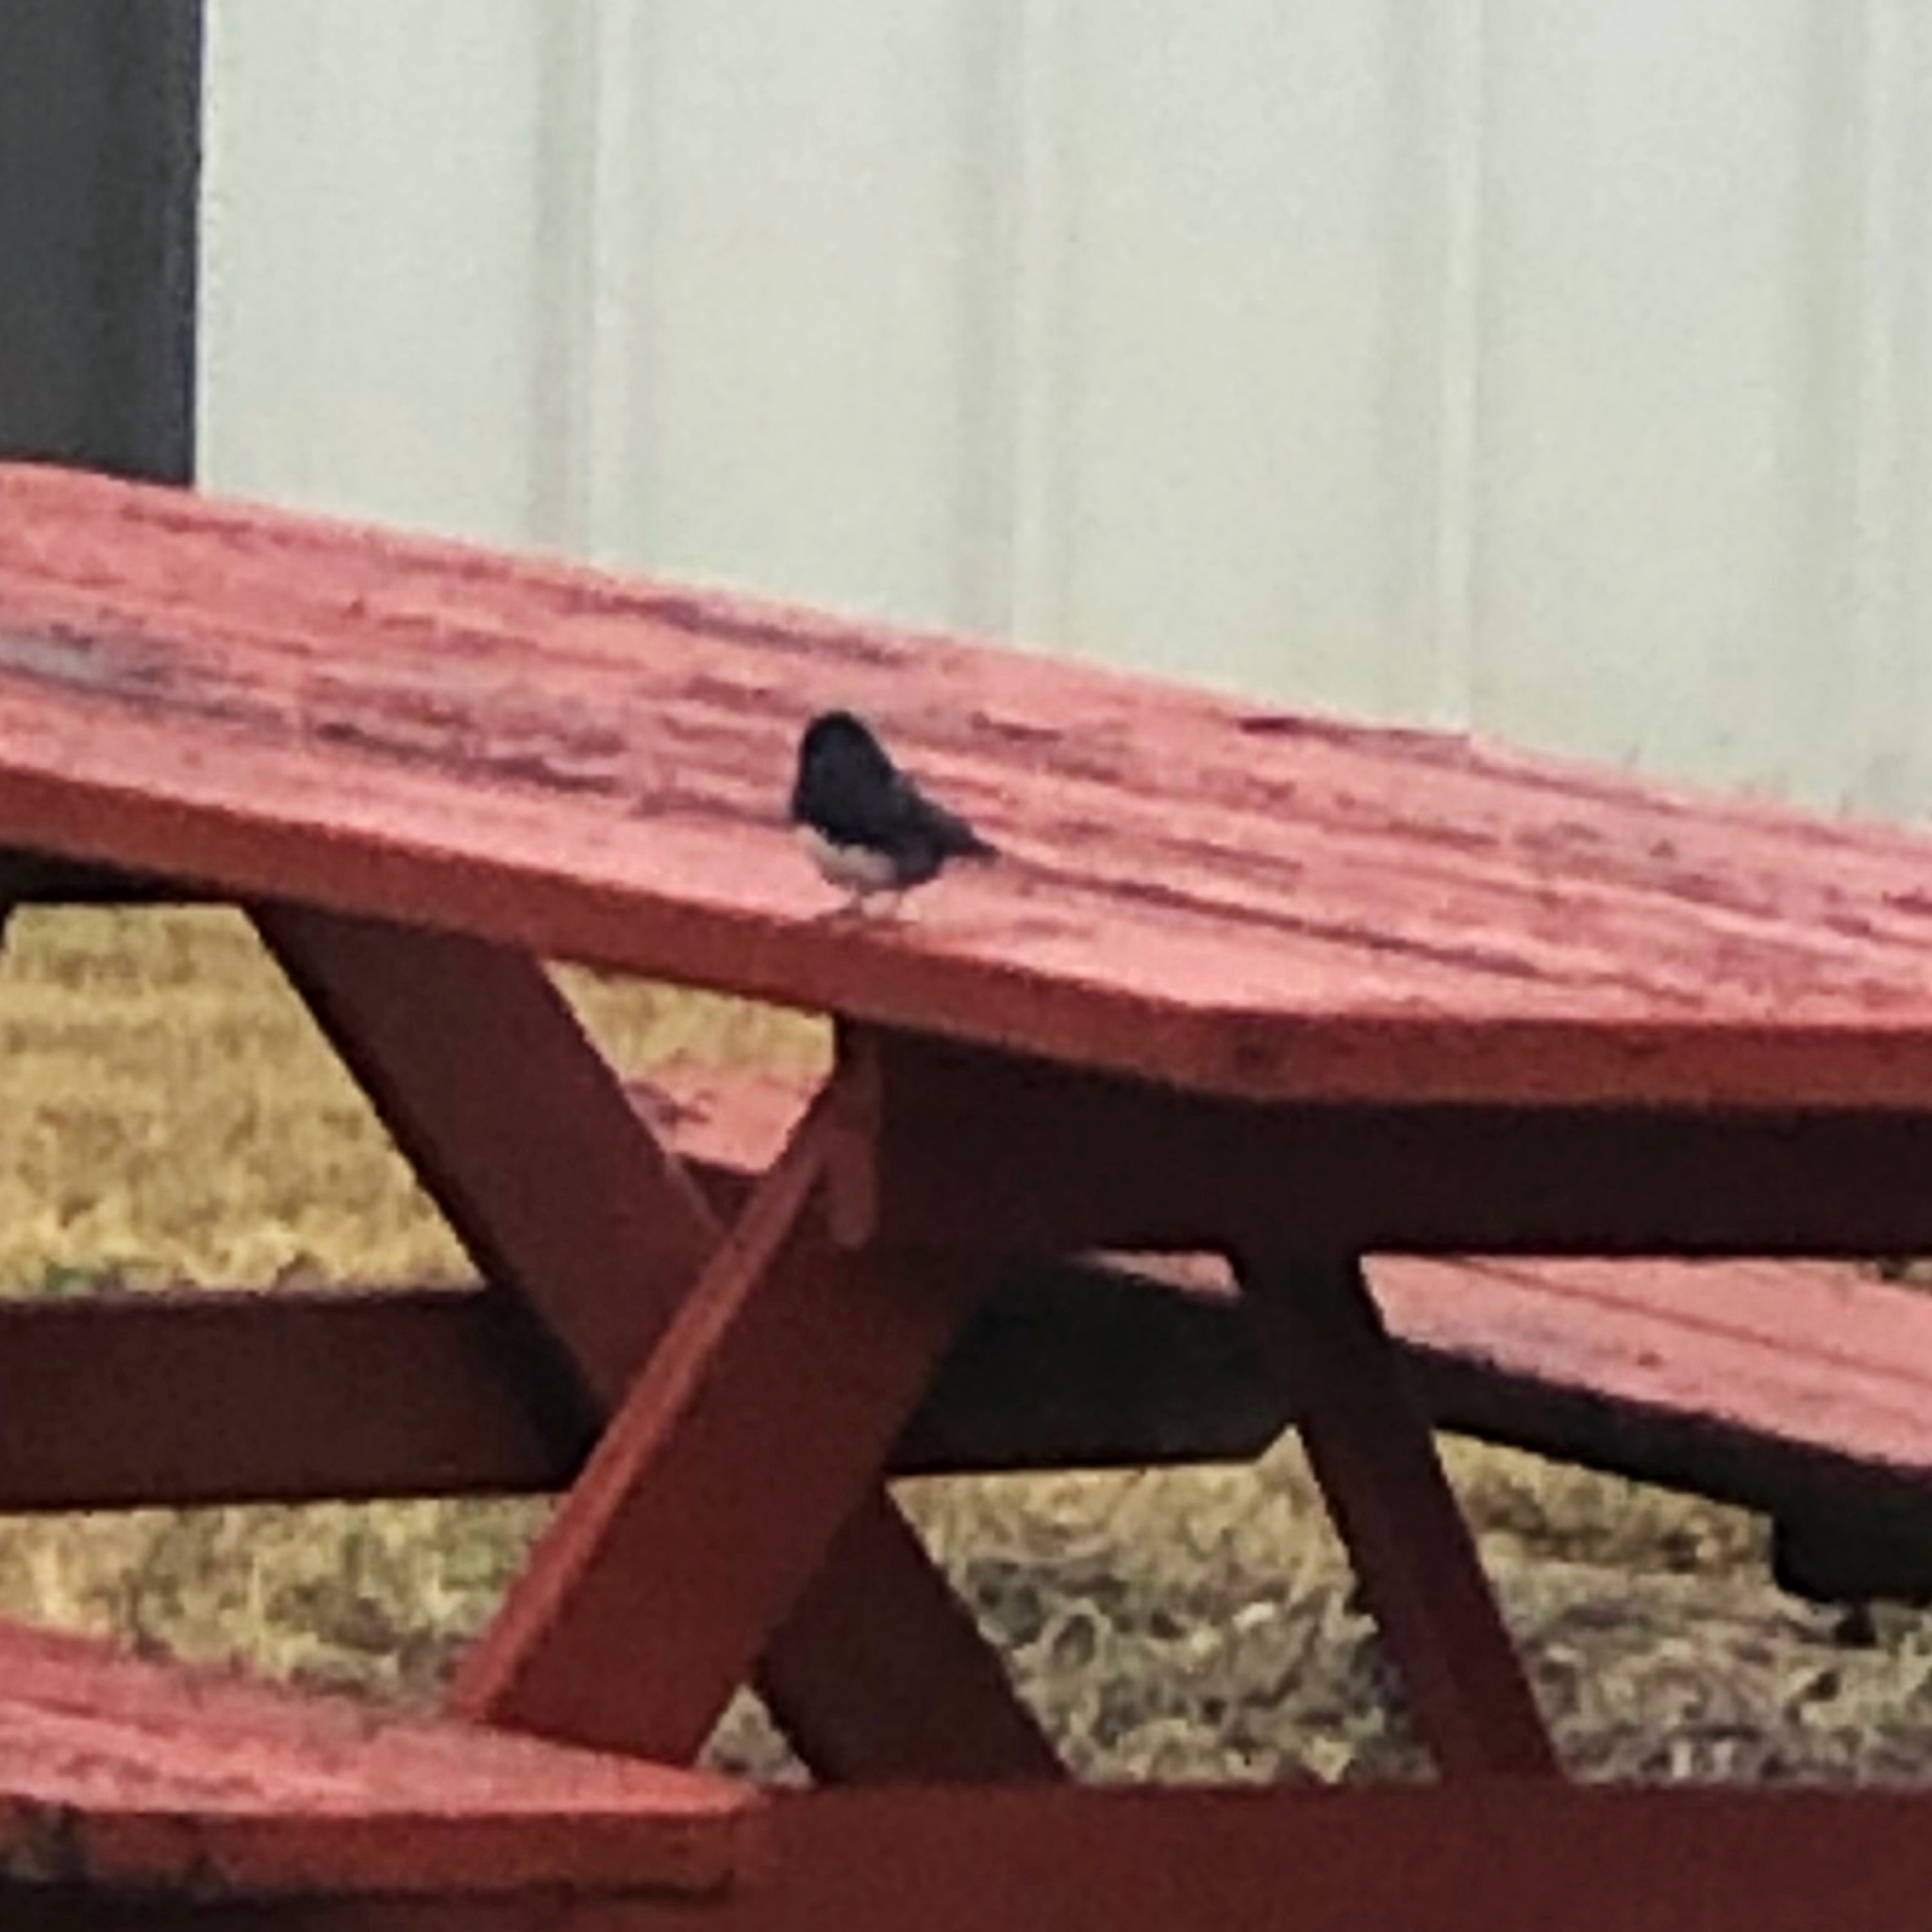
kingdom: Animalia
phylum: Chordata
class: Aves
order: Passeriformes
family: Passerellidae
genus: Junco
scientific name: Junco hyemalis
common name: Dark-eyed junco
